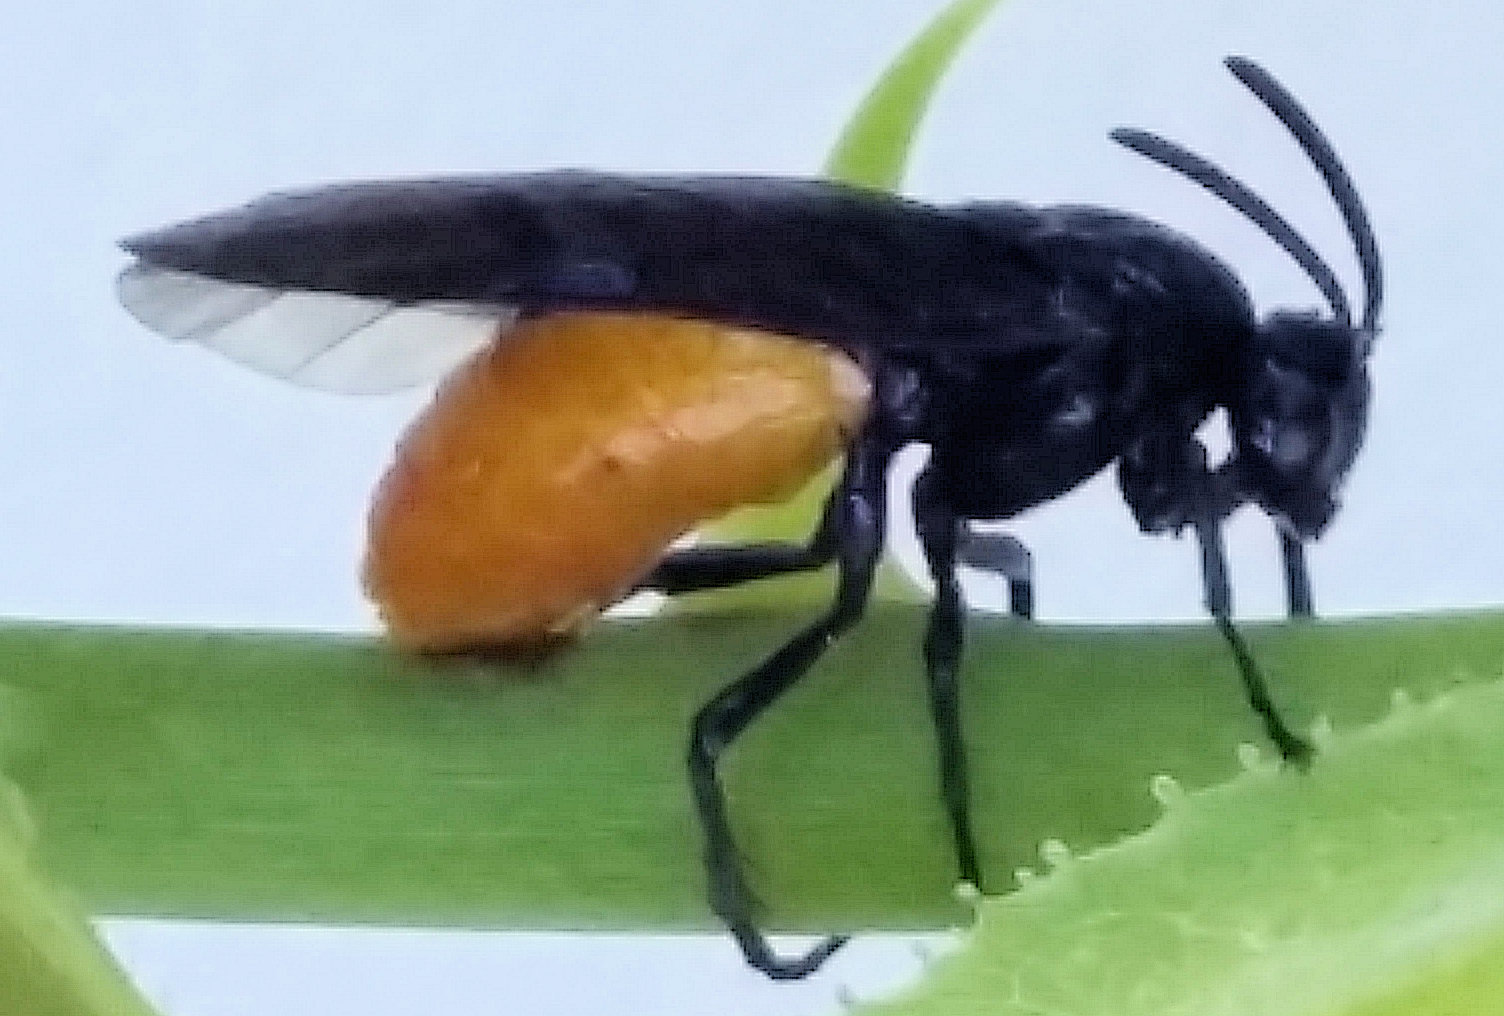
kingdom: Animalia
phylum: Arthropoda
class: Insecta
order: Hymenoptera
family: Argidae
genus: Arge
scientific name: Arge pagana
